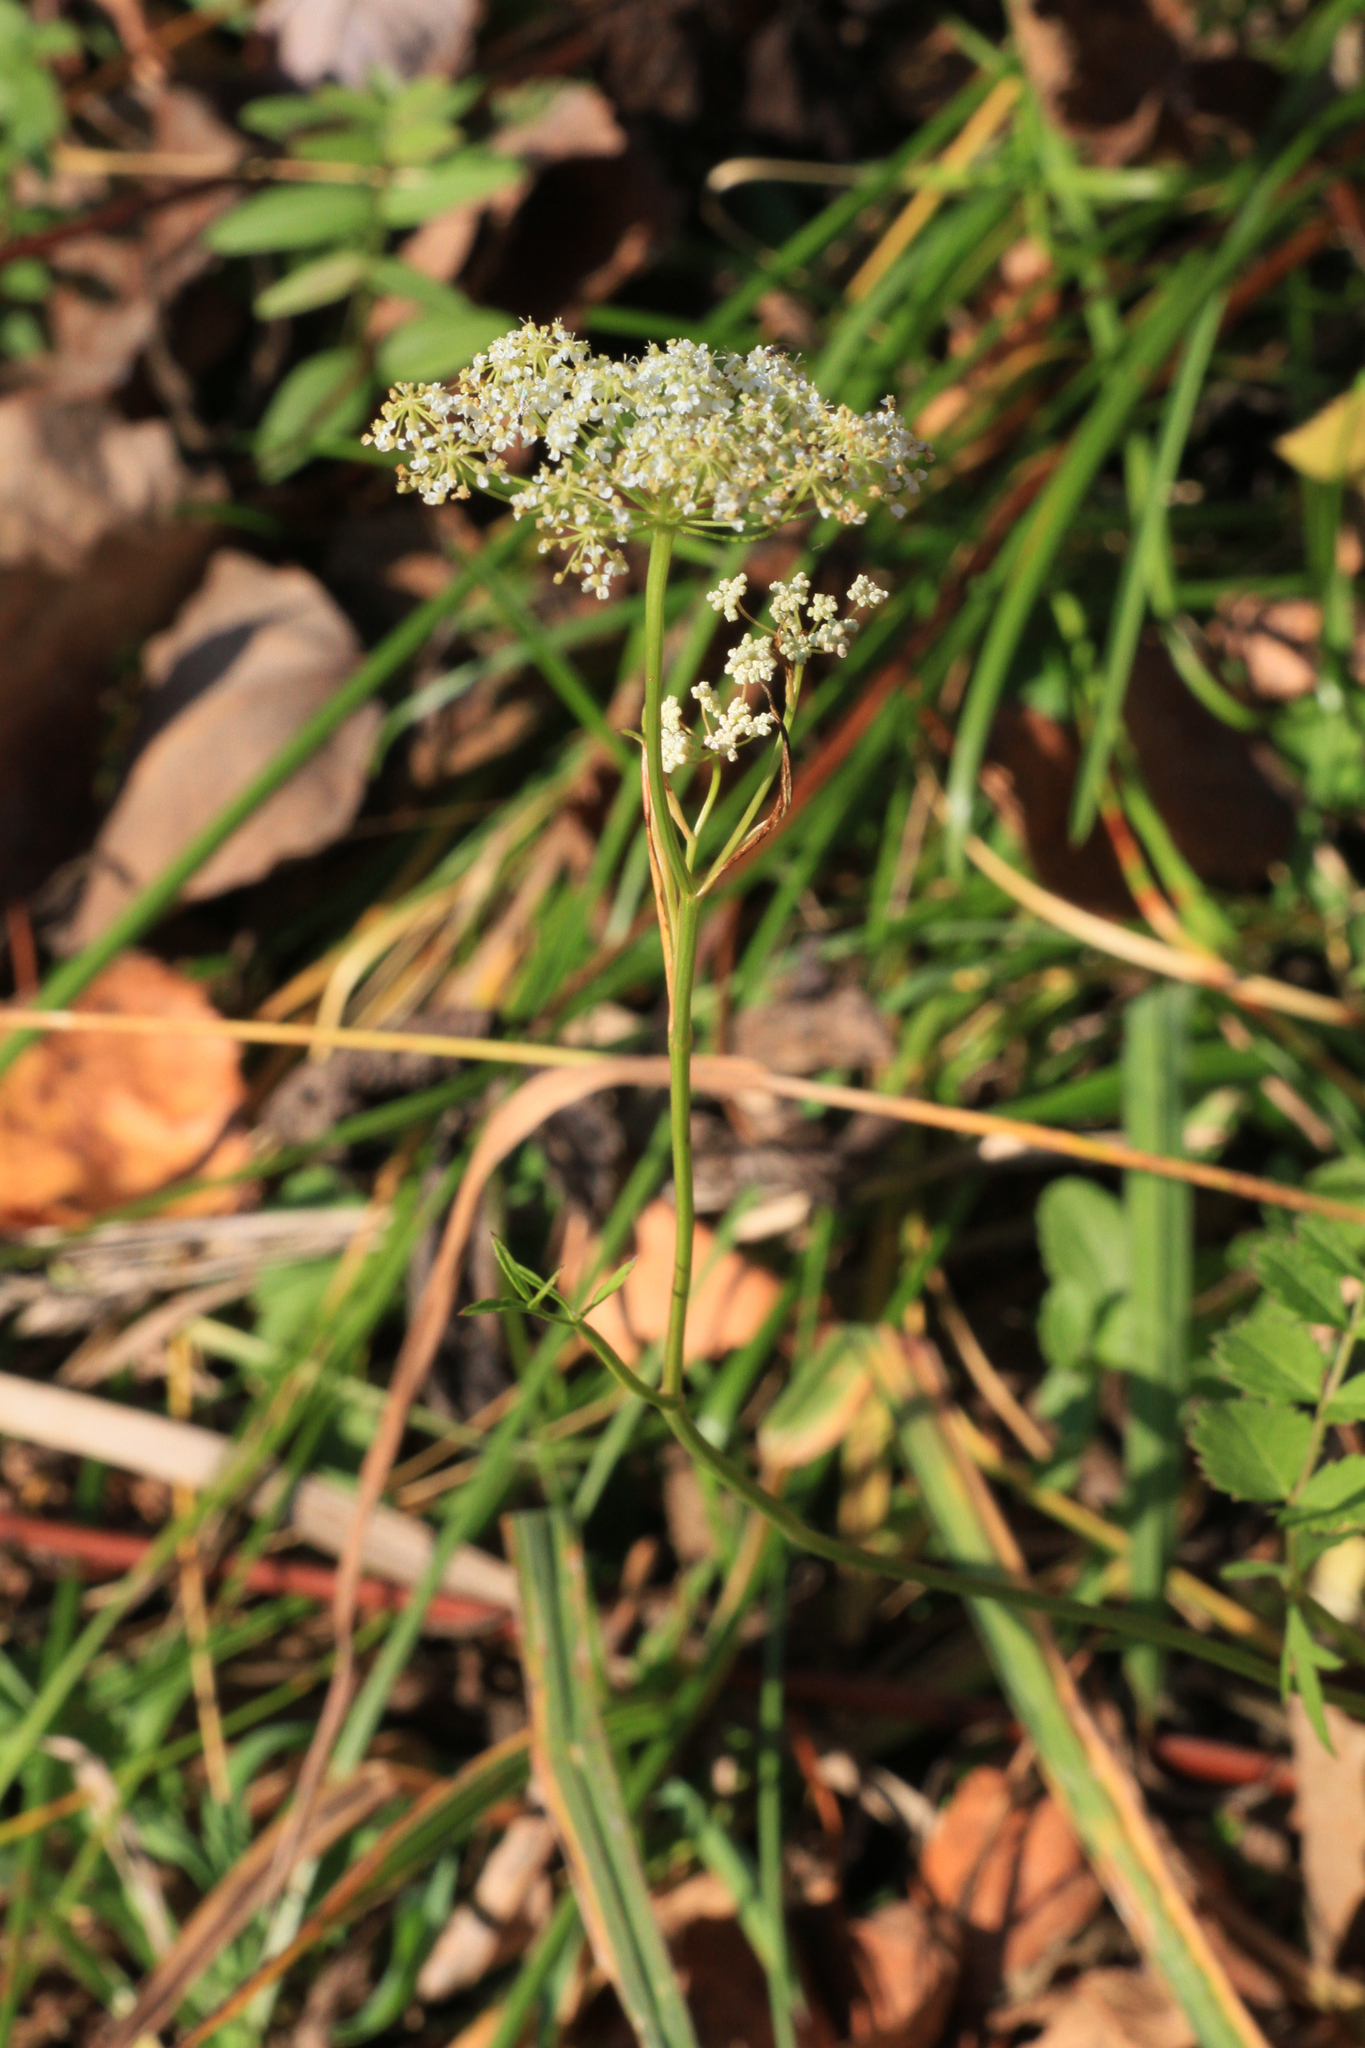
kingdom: Plantae
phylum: Tracheophyta
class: Magnoliopsida
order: Apiales
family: Apiaceae
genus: Pimpinella
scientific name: Pimpinella saxifraga
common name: Burnet-saxifrage
